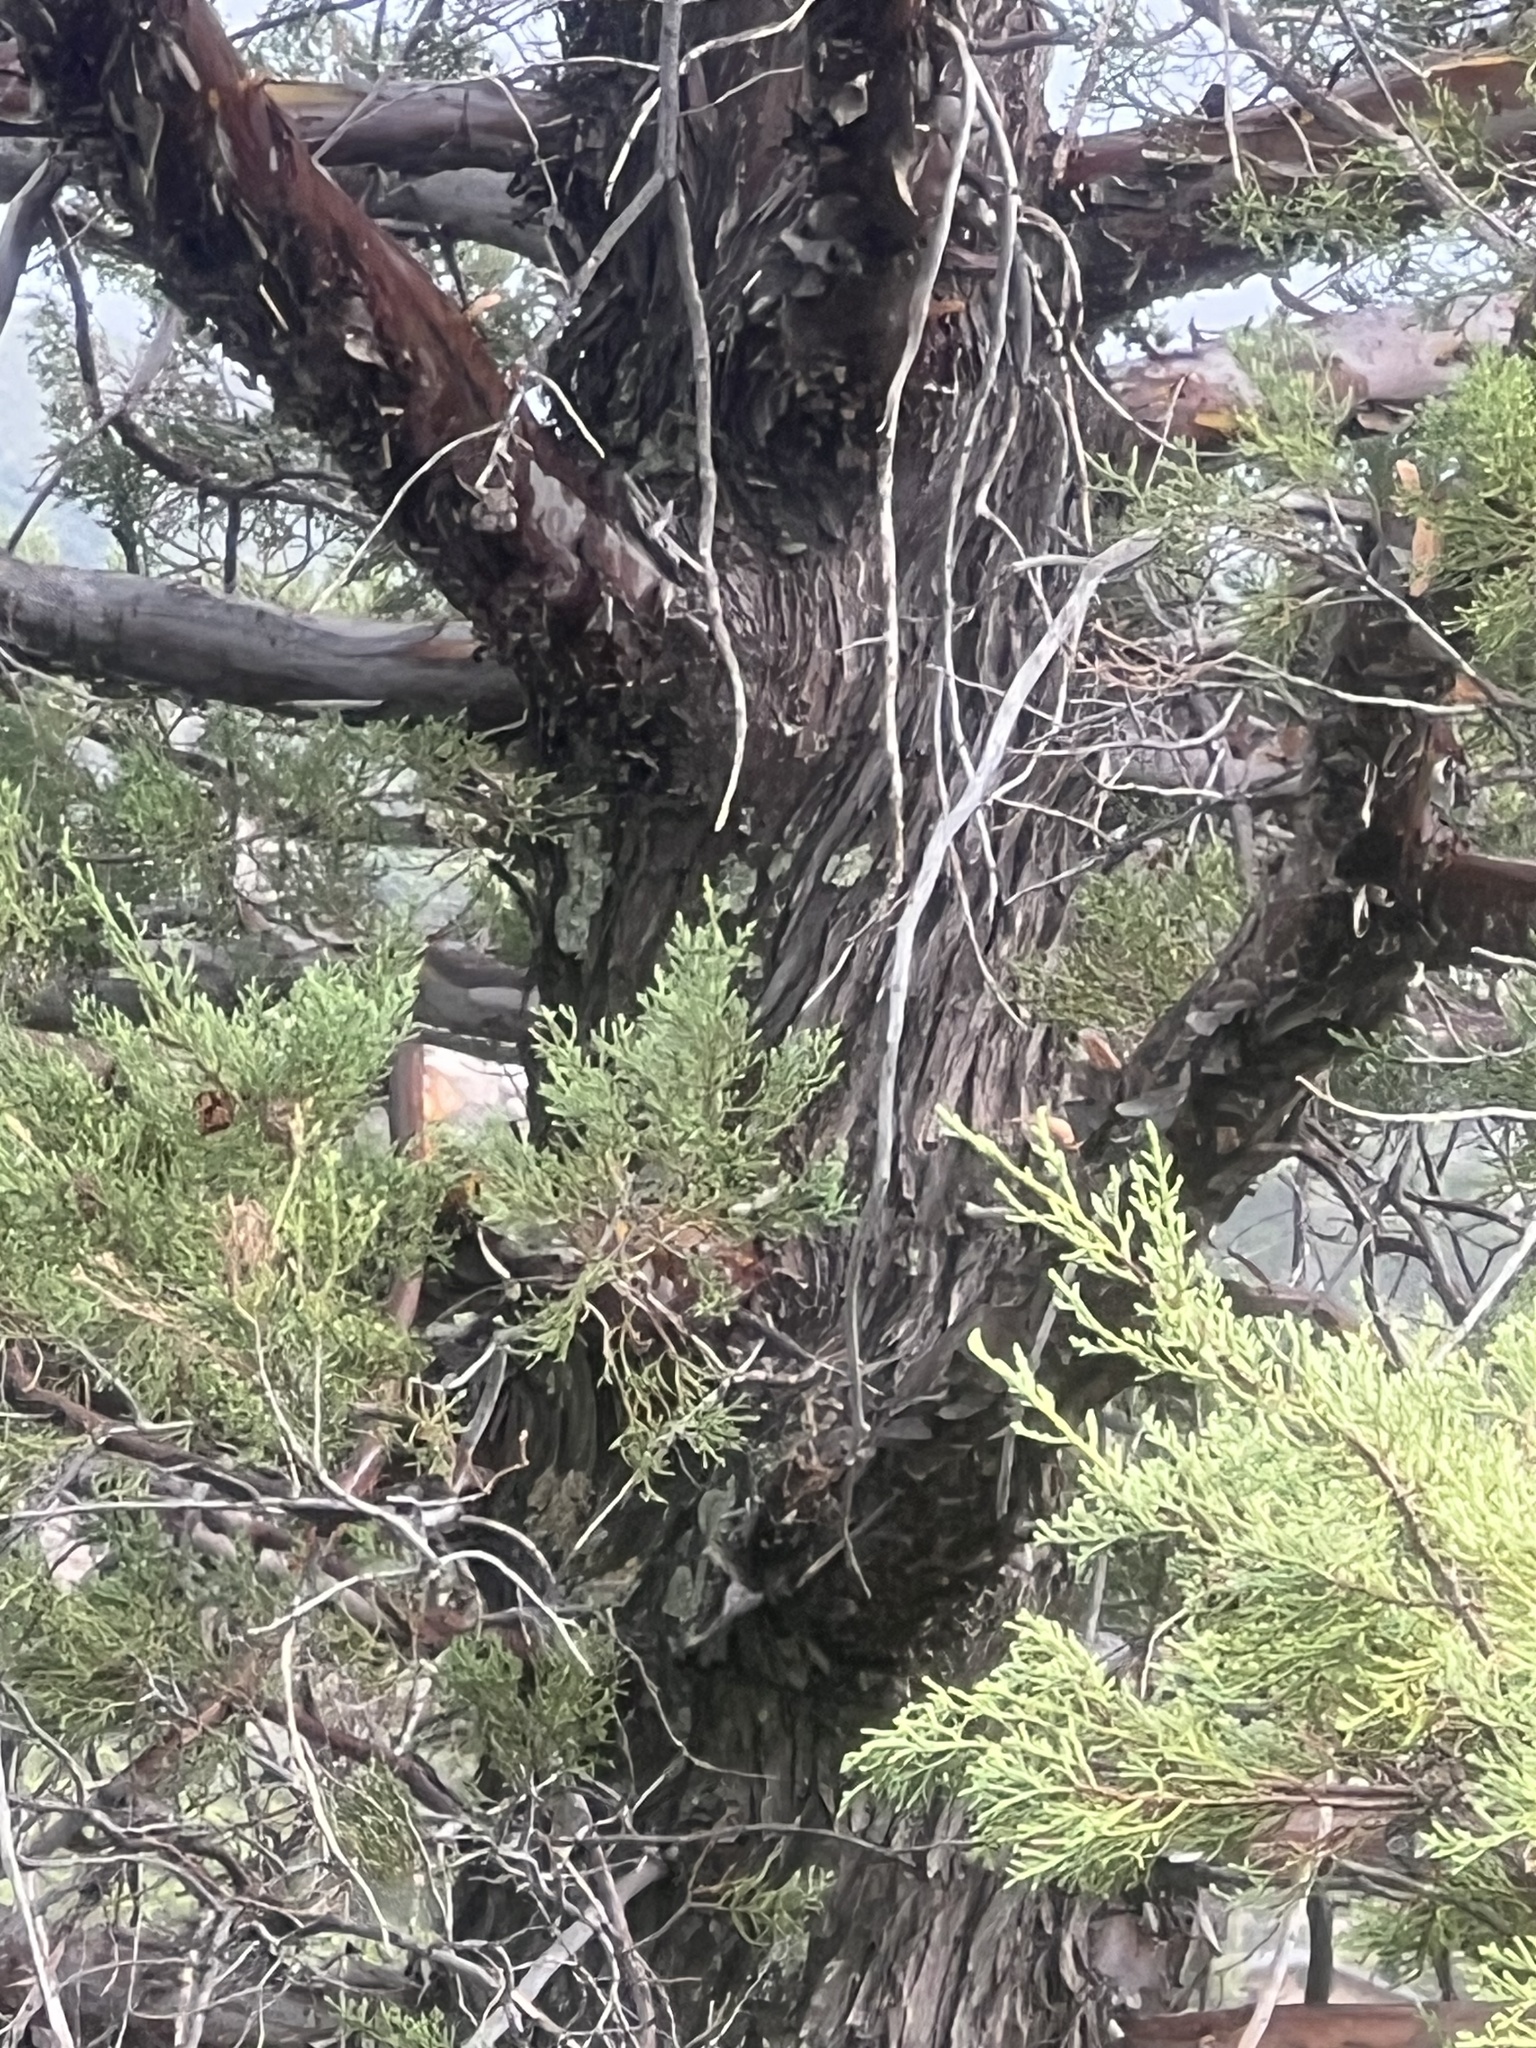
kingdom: Plantae
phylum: Tracheophyta
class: Pinopsida
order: Pinales
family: Cupressaceae
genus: Cupressus
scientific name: Cupressus arizonica
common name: Arizona cypress
